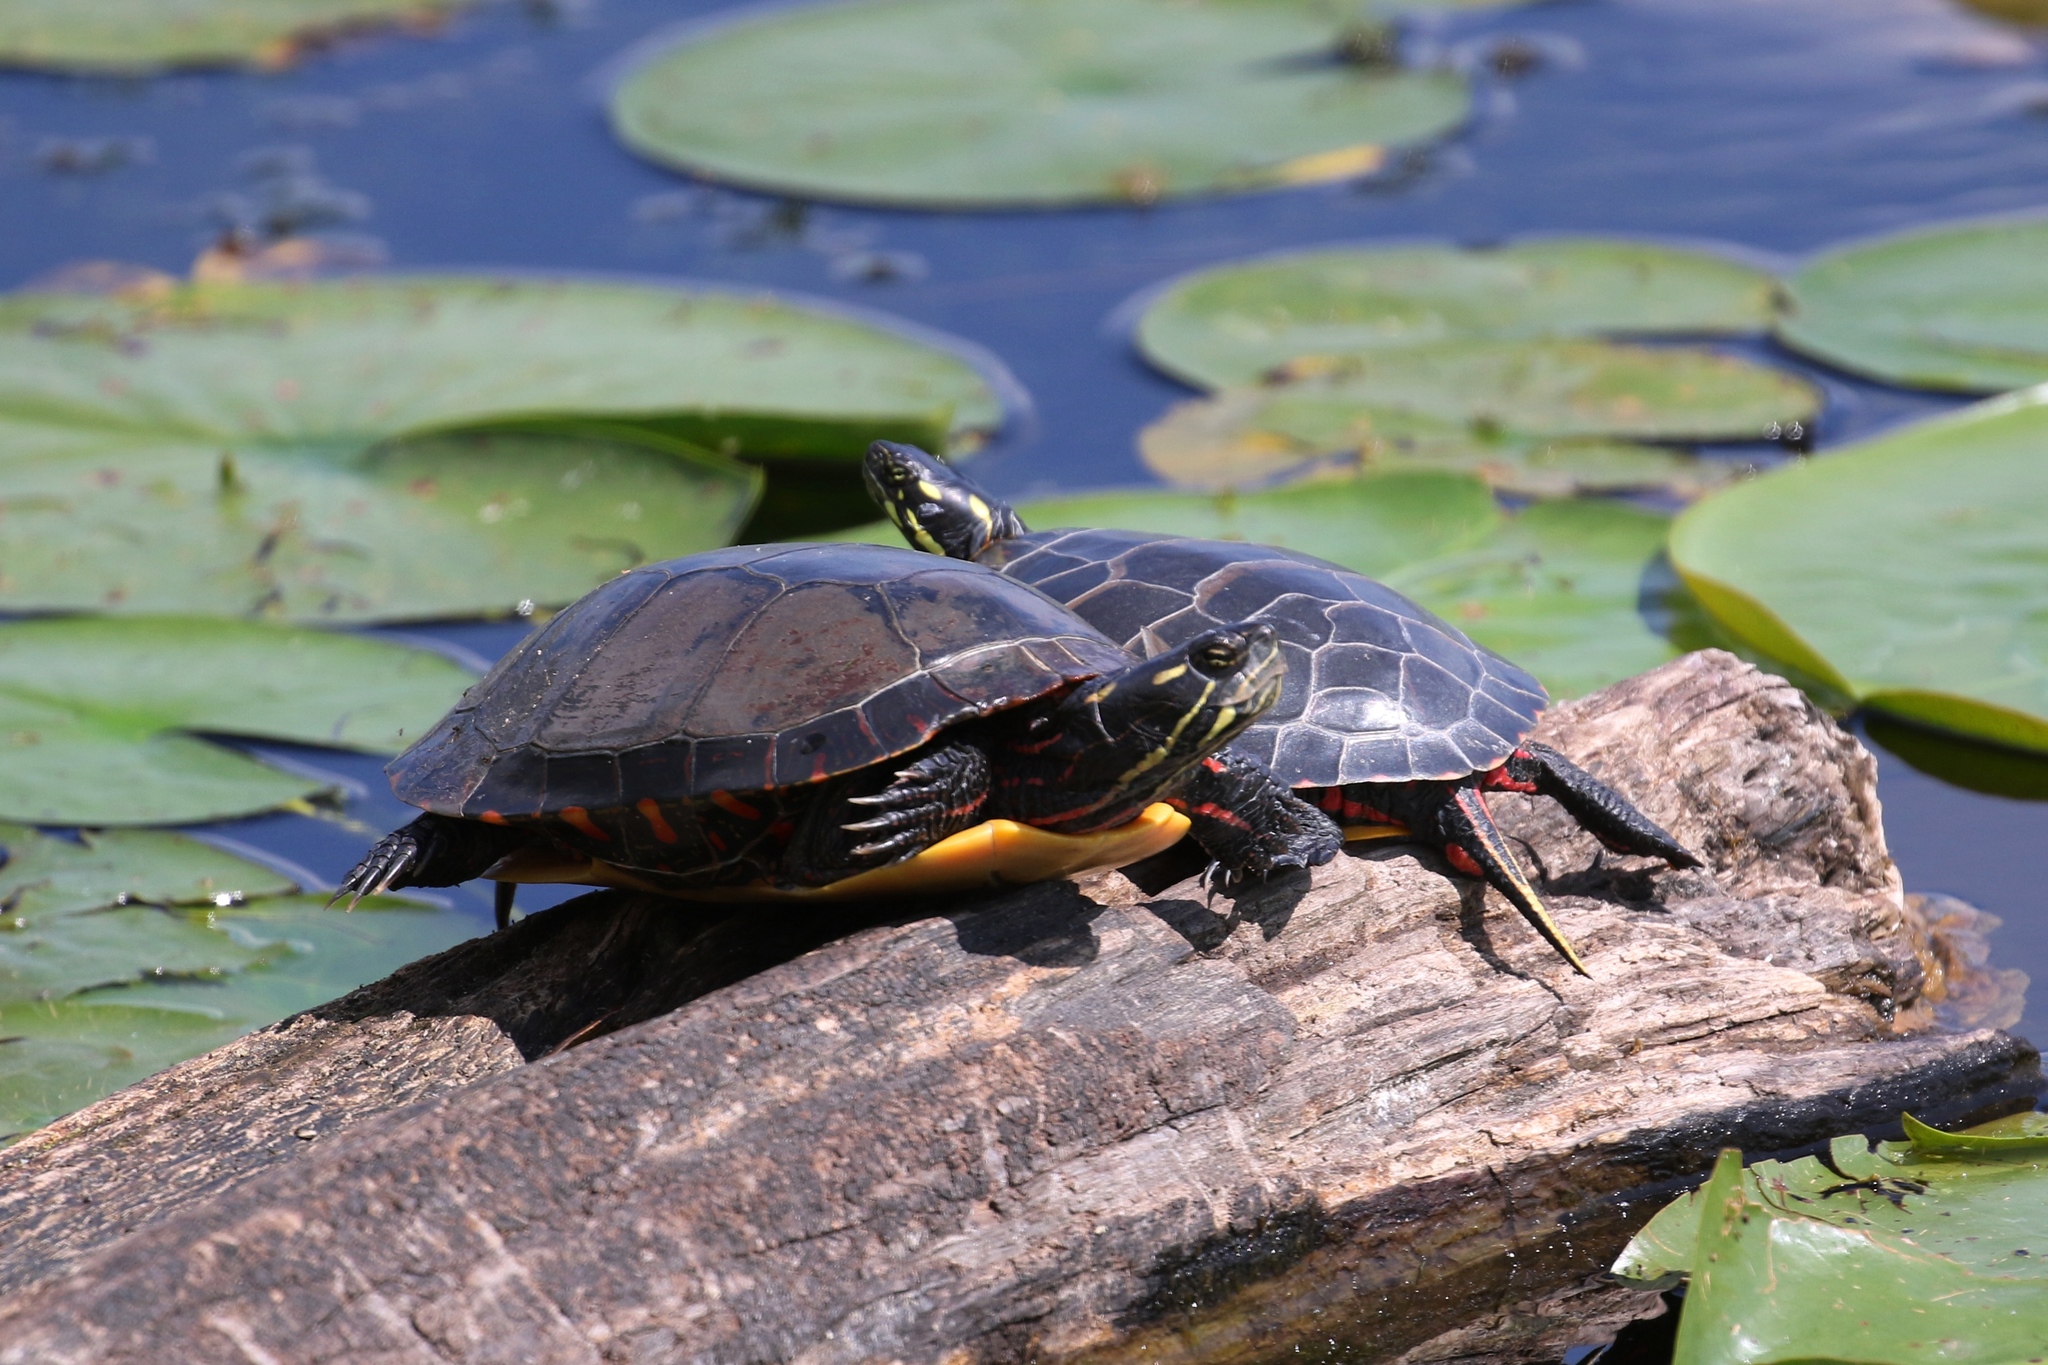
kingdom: Animalia
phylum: Chordata
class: Testudines
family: Emydidae
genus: Chrysemys
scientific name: Chrysemys picta
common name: Painted turtle
